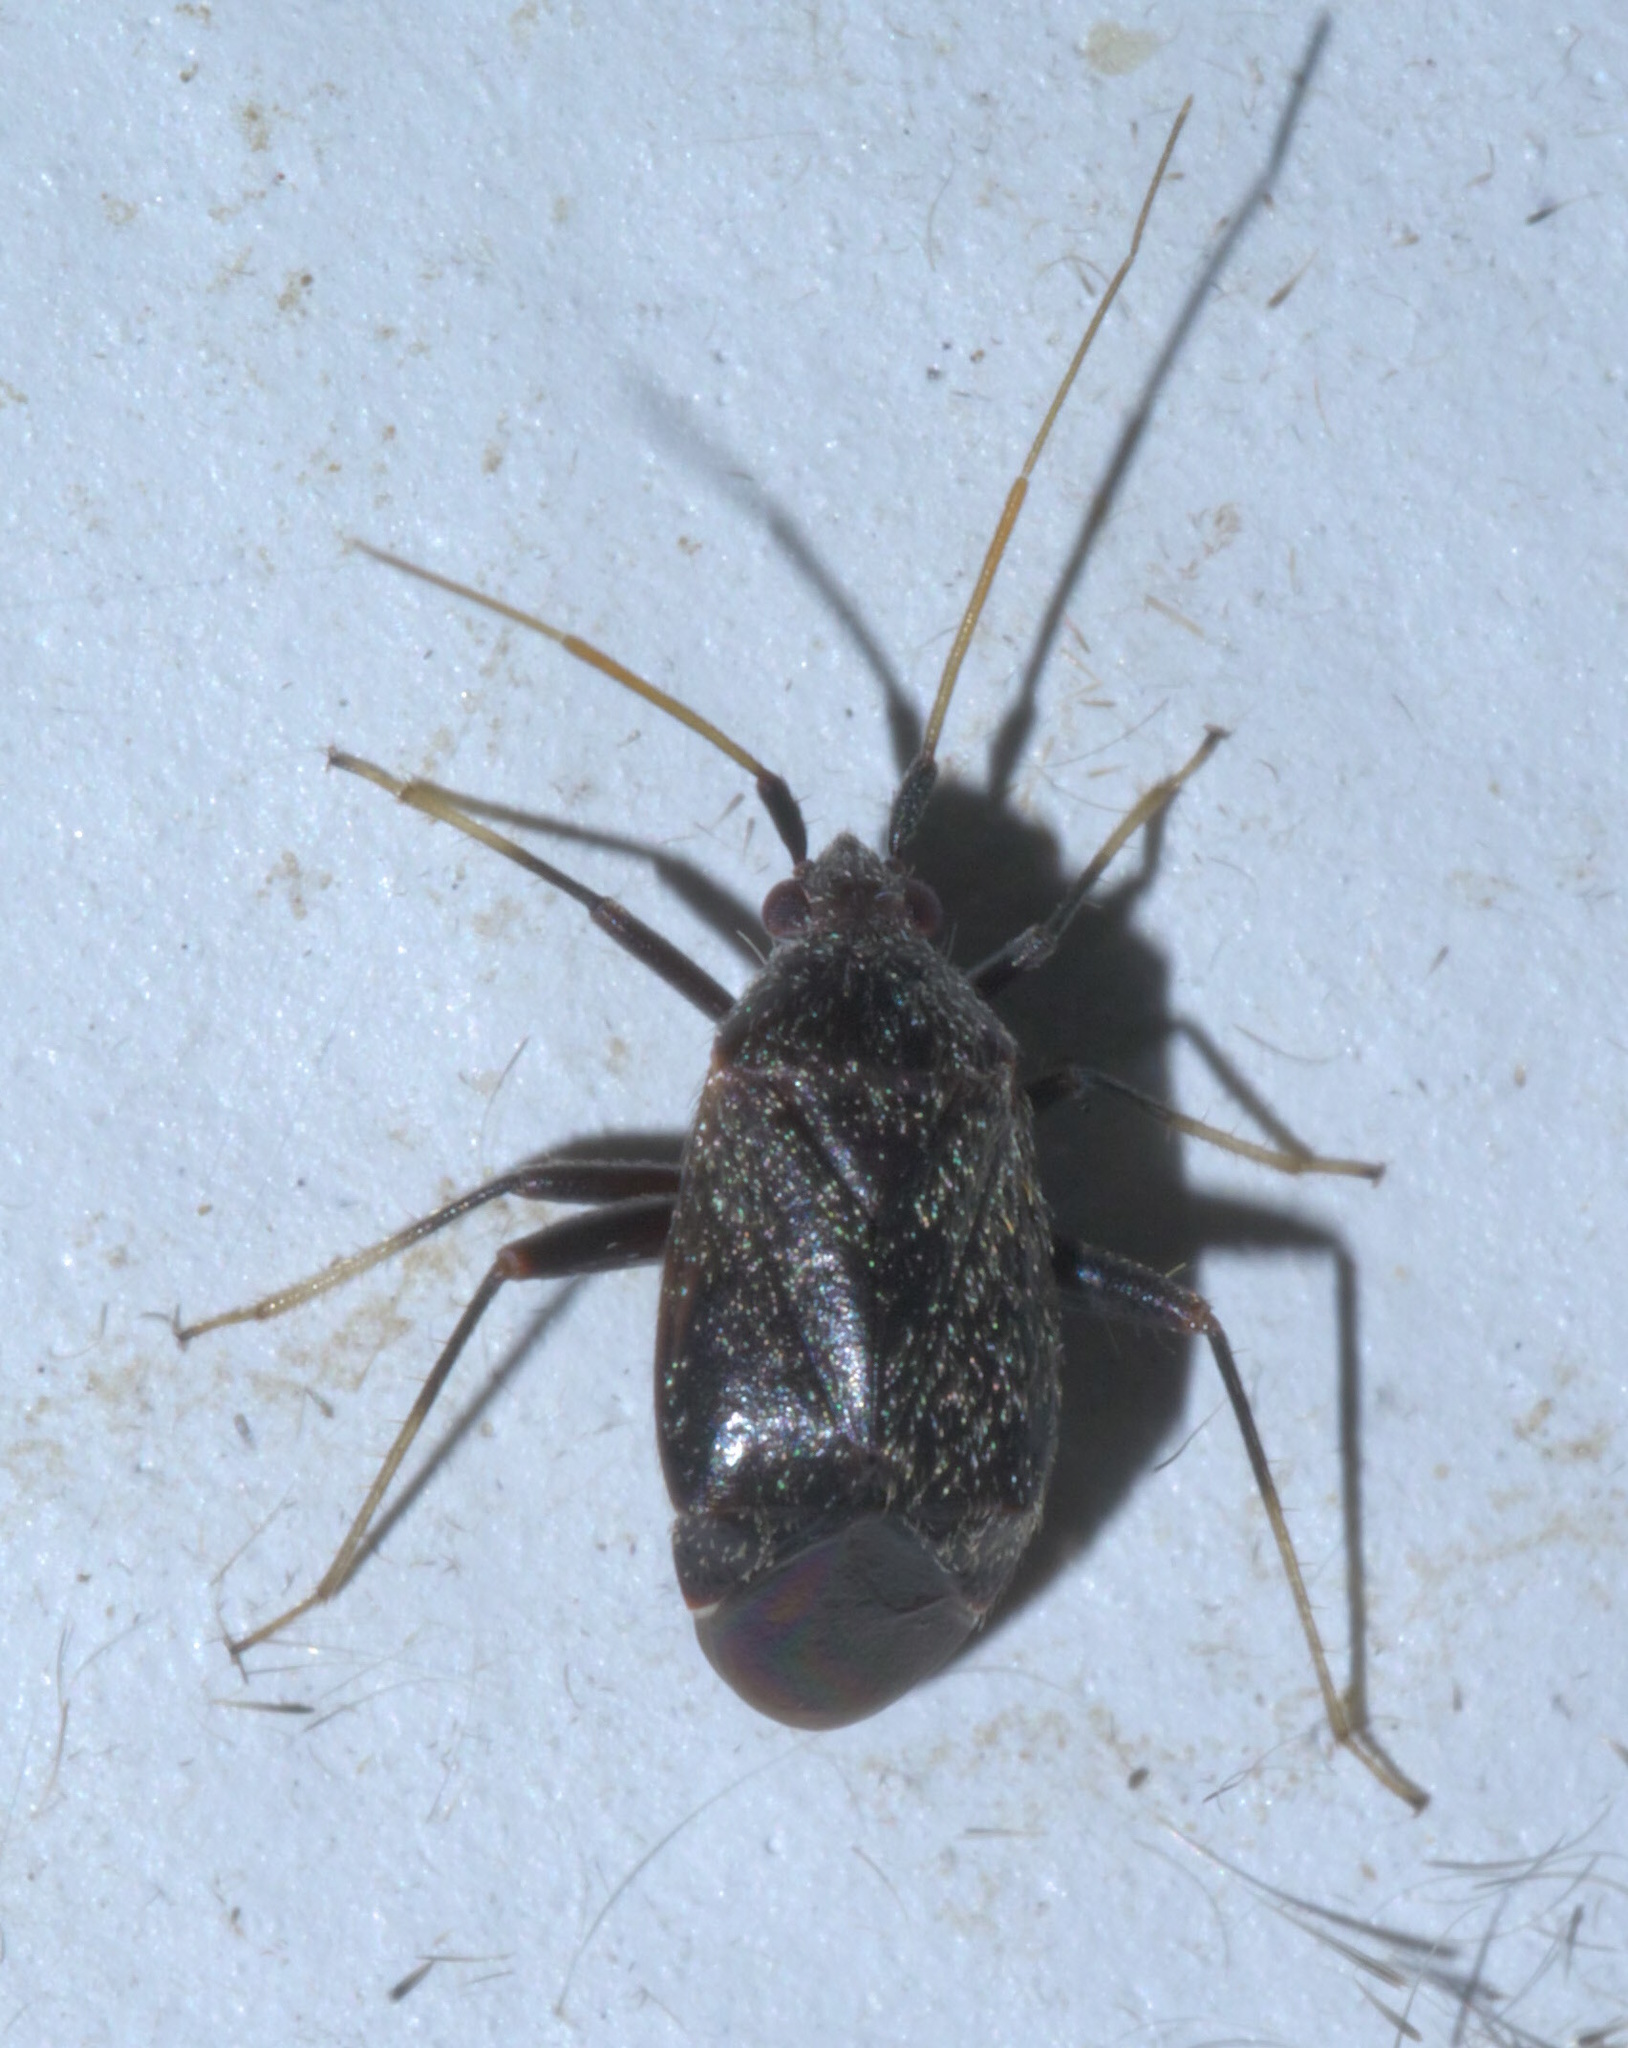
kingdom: Animalia
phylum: Arthropoda
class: Insecta
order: Hemiptera
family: Miridae
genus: Texocoris
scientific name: Texocoris nigrellus
